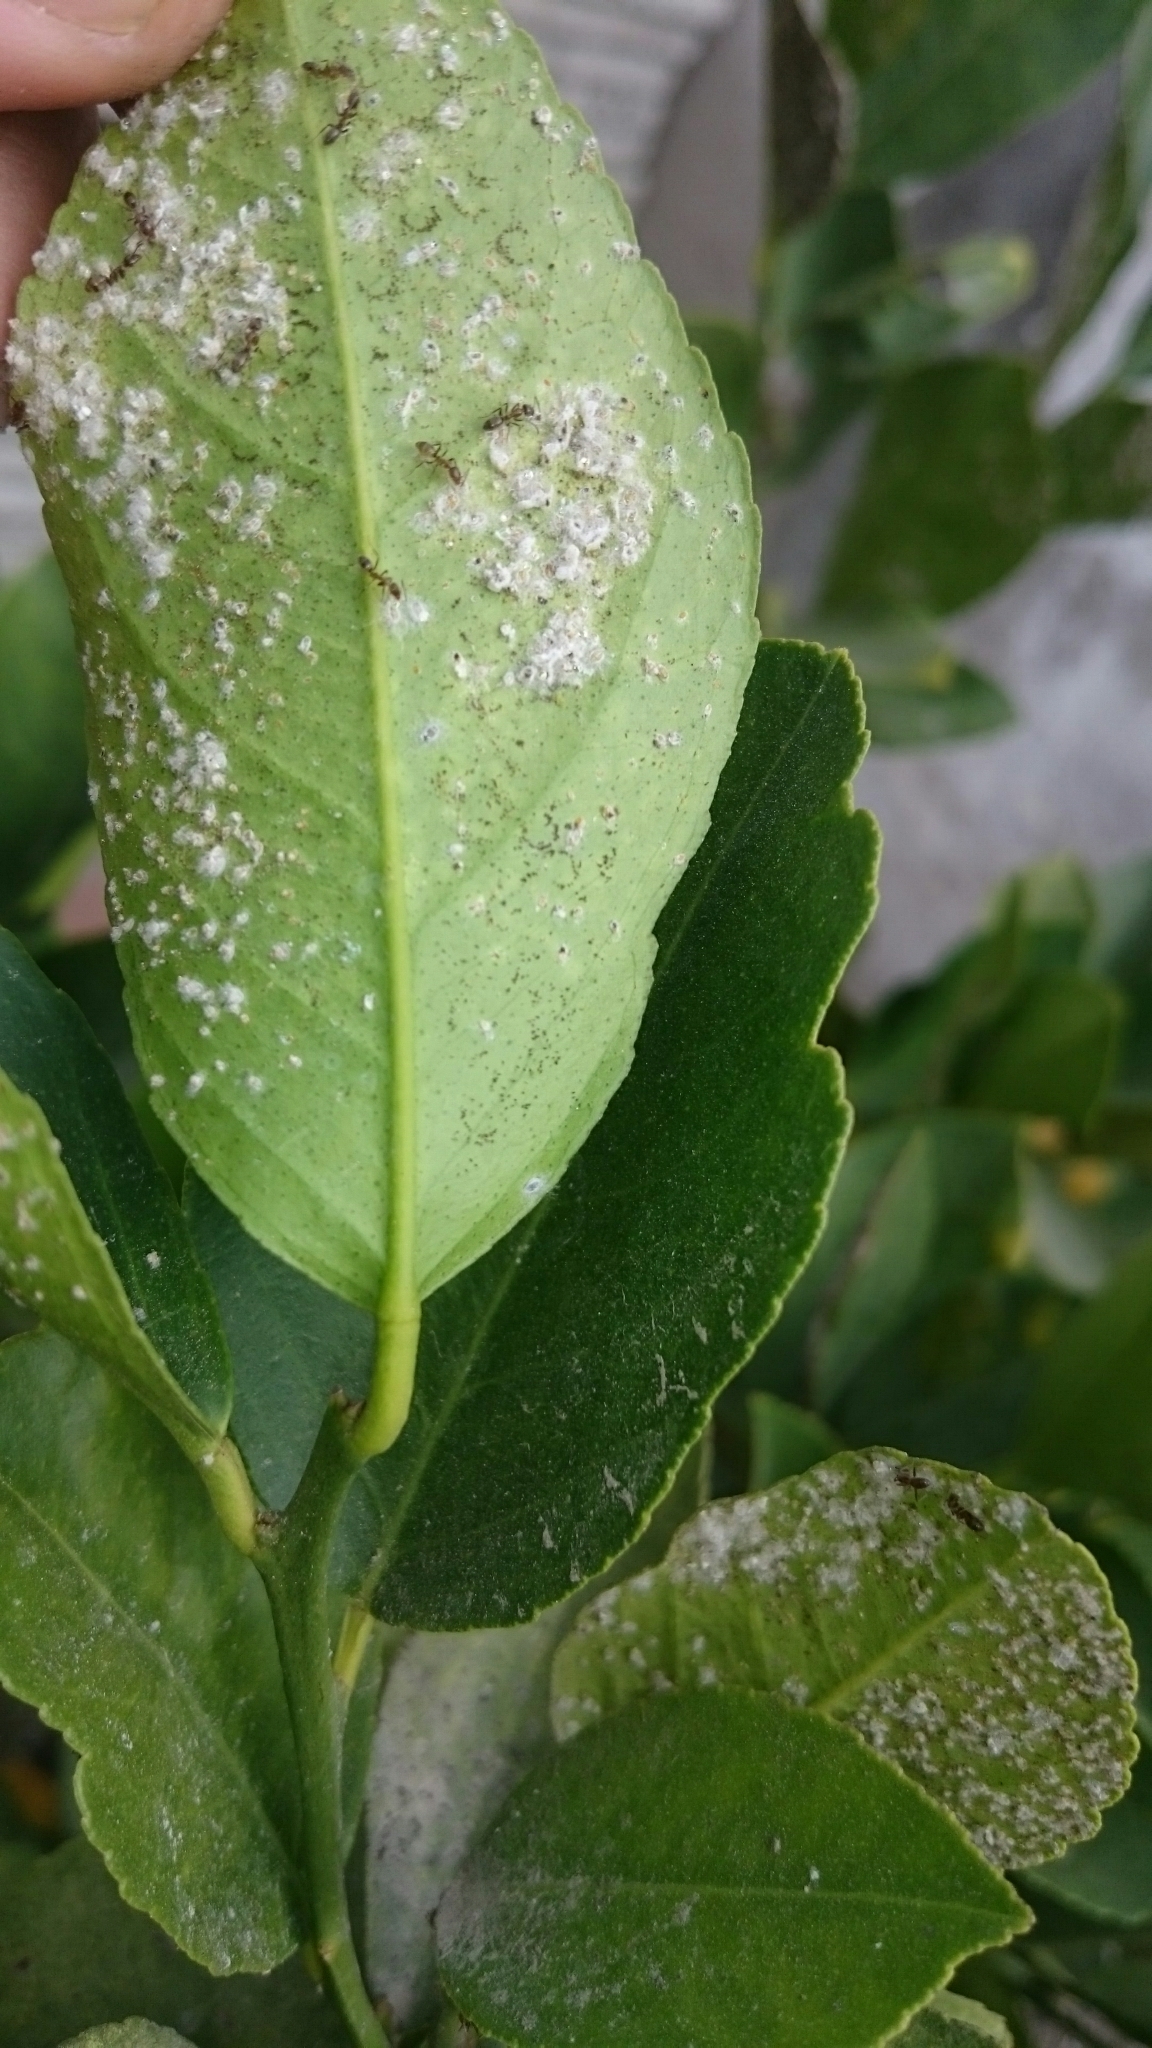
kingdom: Animalia
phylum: Arthropoda
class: Insecta
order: Hymenoptera
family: Formicidae
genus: Linepithema
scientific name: Linepithema humile
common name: Argentine ant
